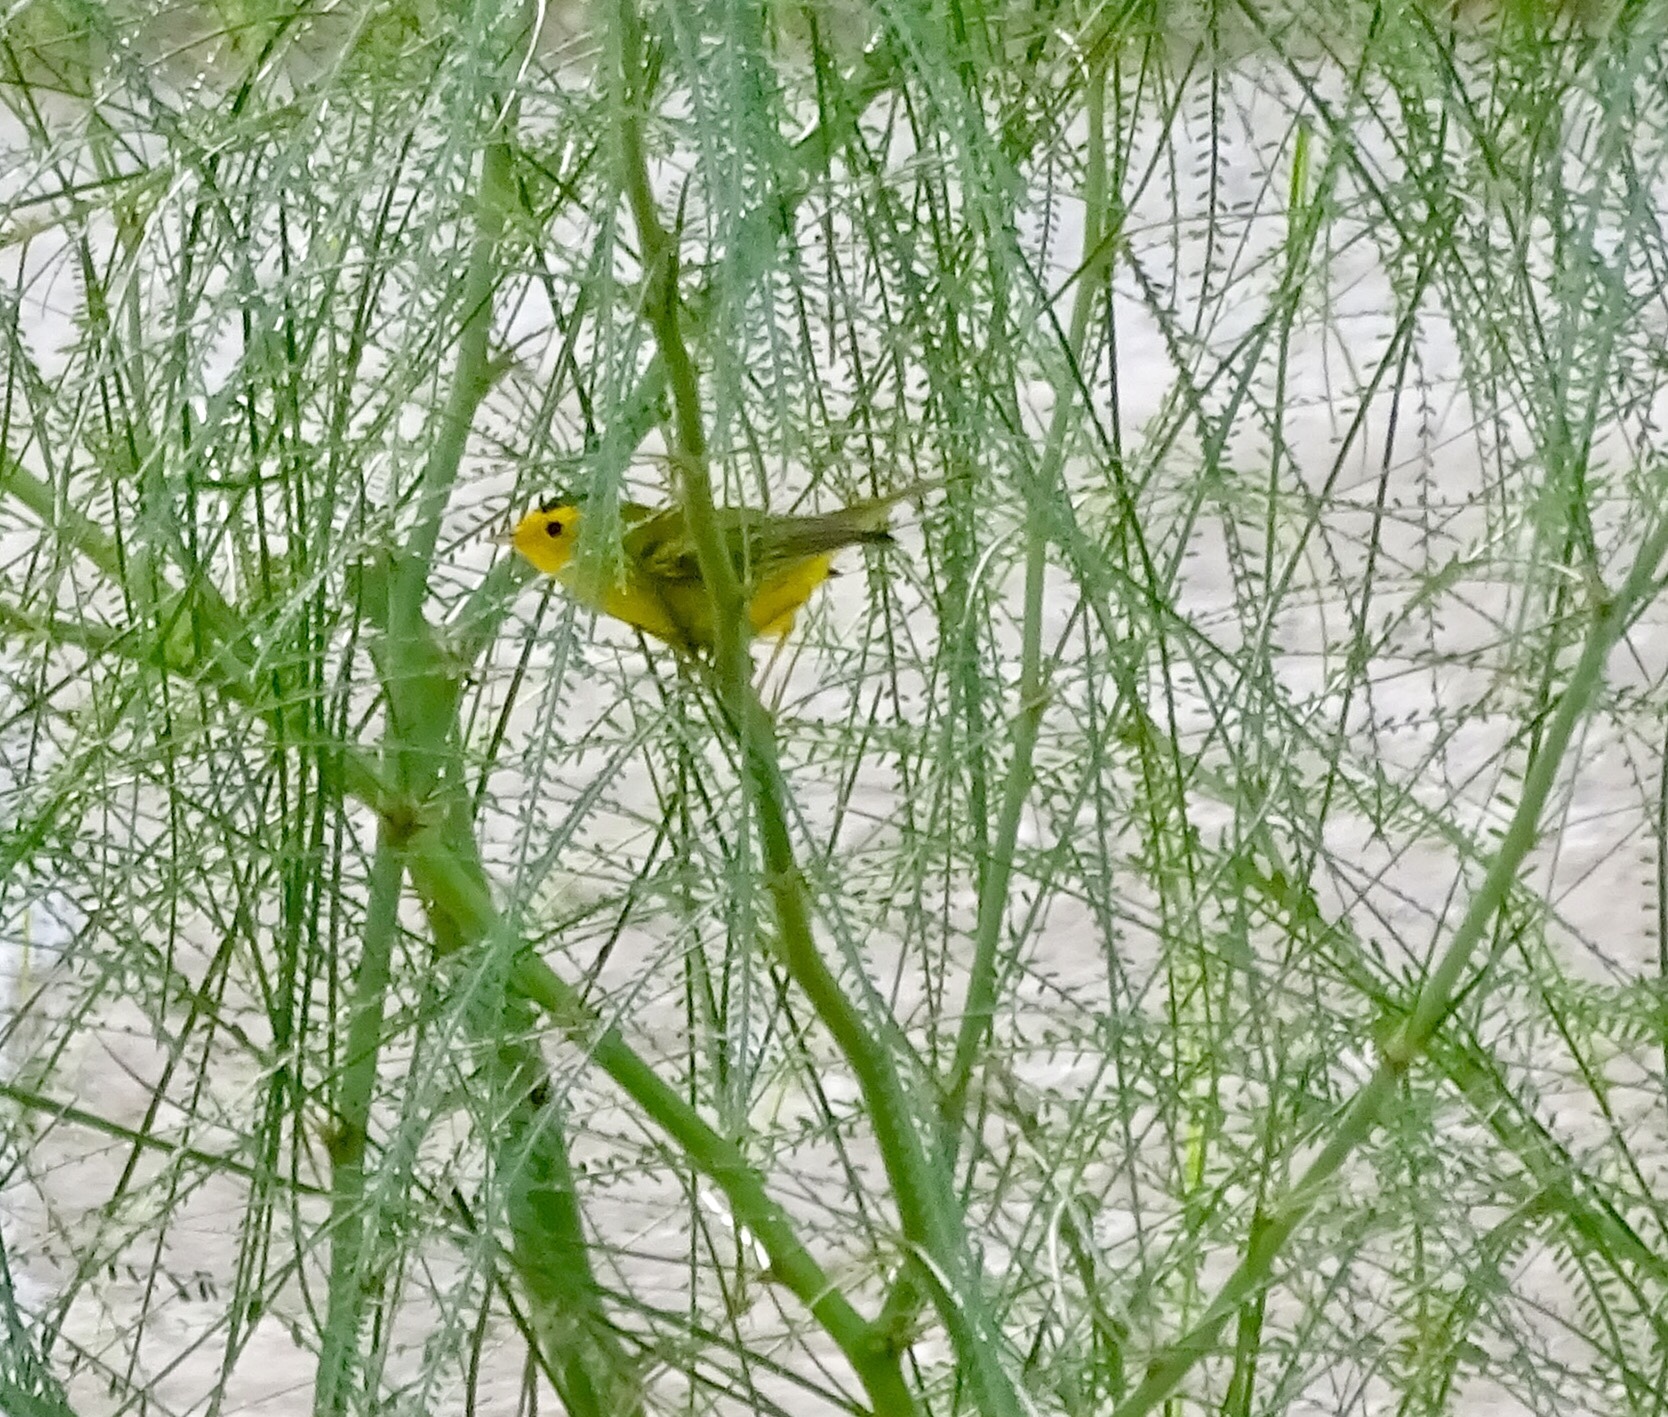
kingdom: Animalia
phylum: Chordata
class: Aves
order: Passeriformes
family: Parulidae
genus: Cardellina
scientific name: Cardellina pusilla
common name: Wilson's warbler
